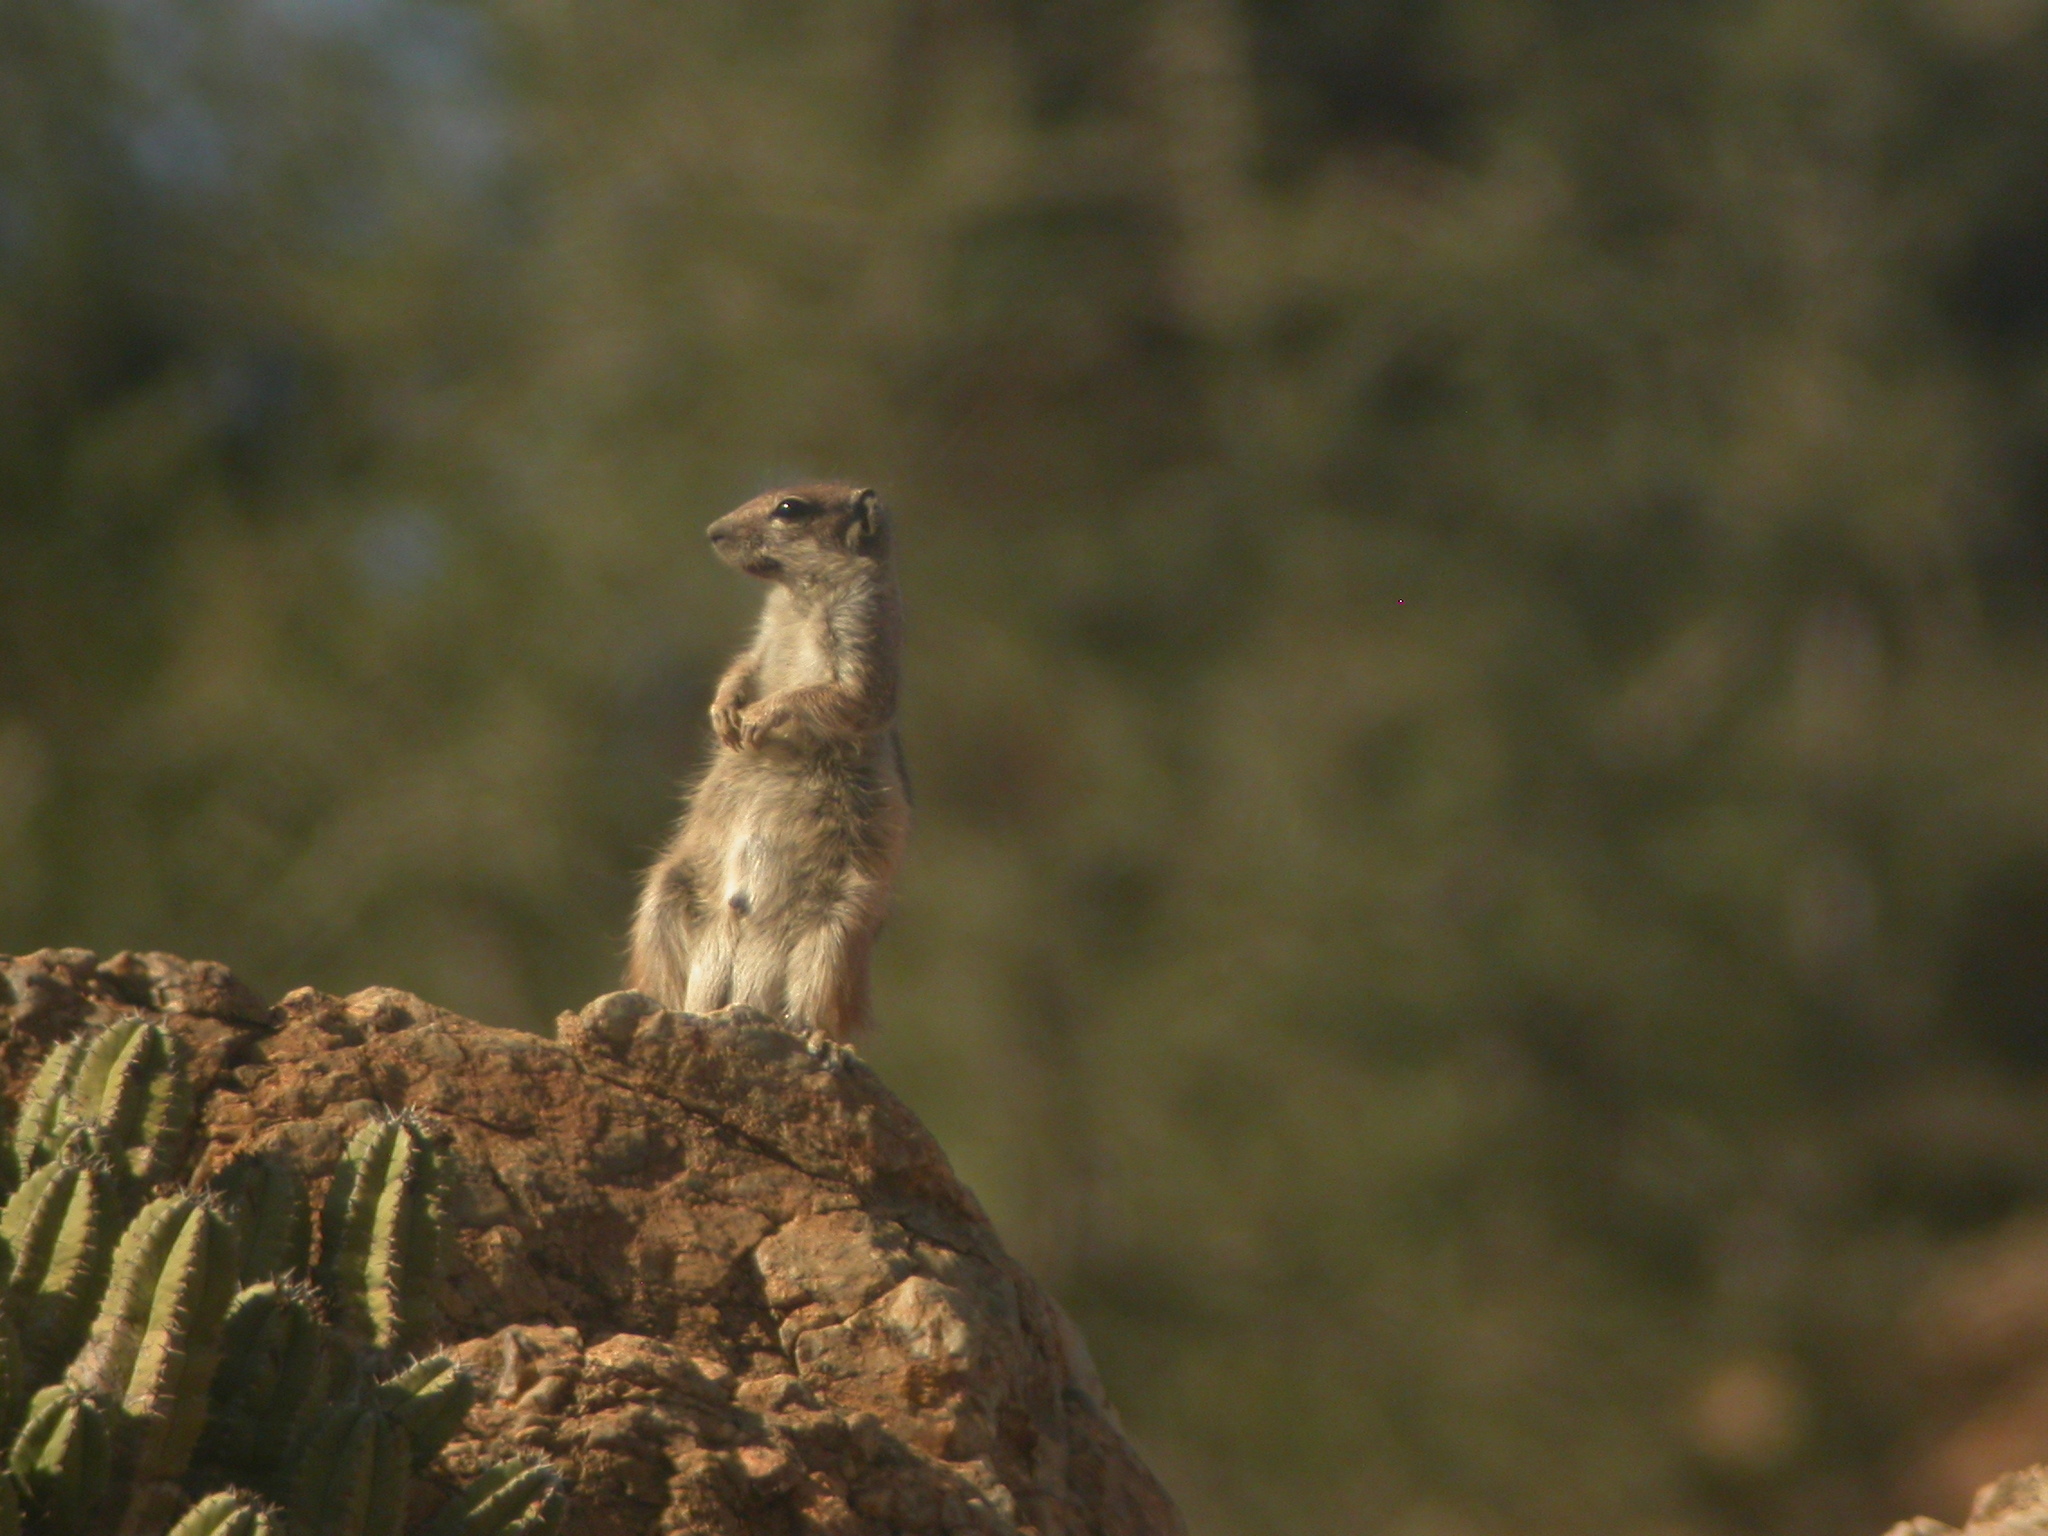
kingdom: Animalia
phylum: Chordata
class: Mammalia
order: Rodentia
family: Sciuridae
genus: Atlantoxerus
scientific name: Atlantoxerus getulus
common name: Barbary ground squirrel
